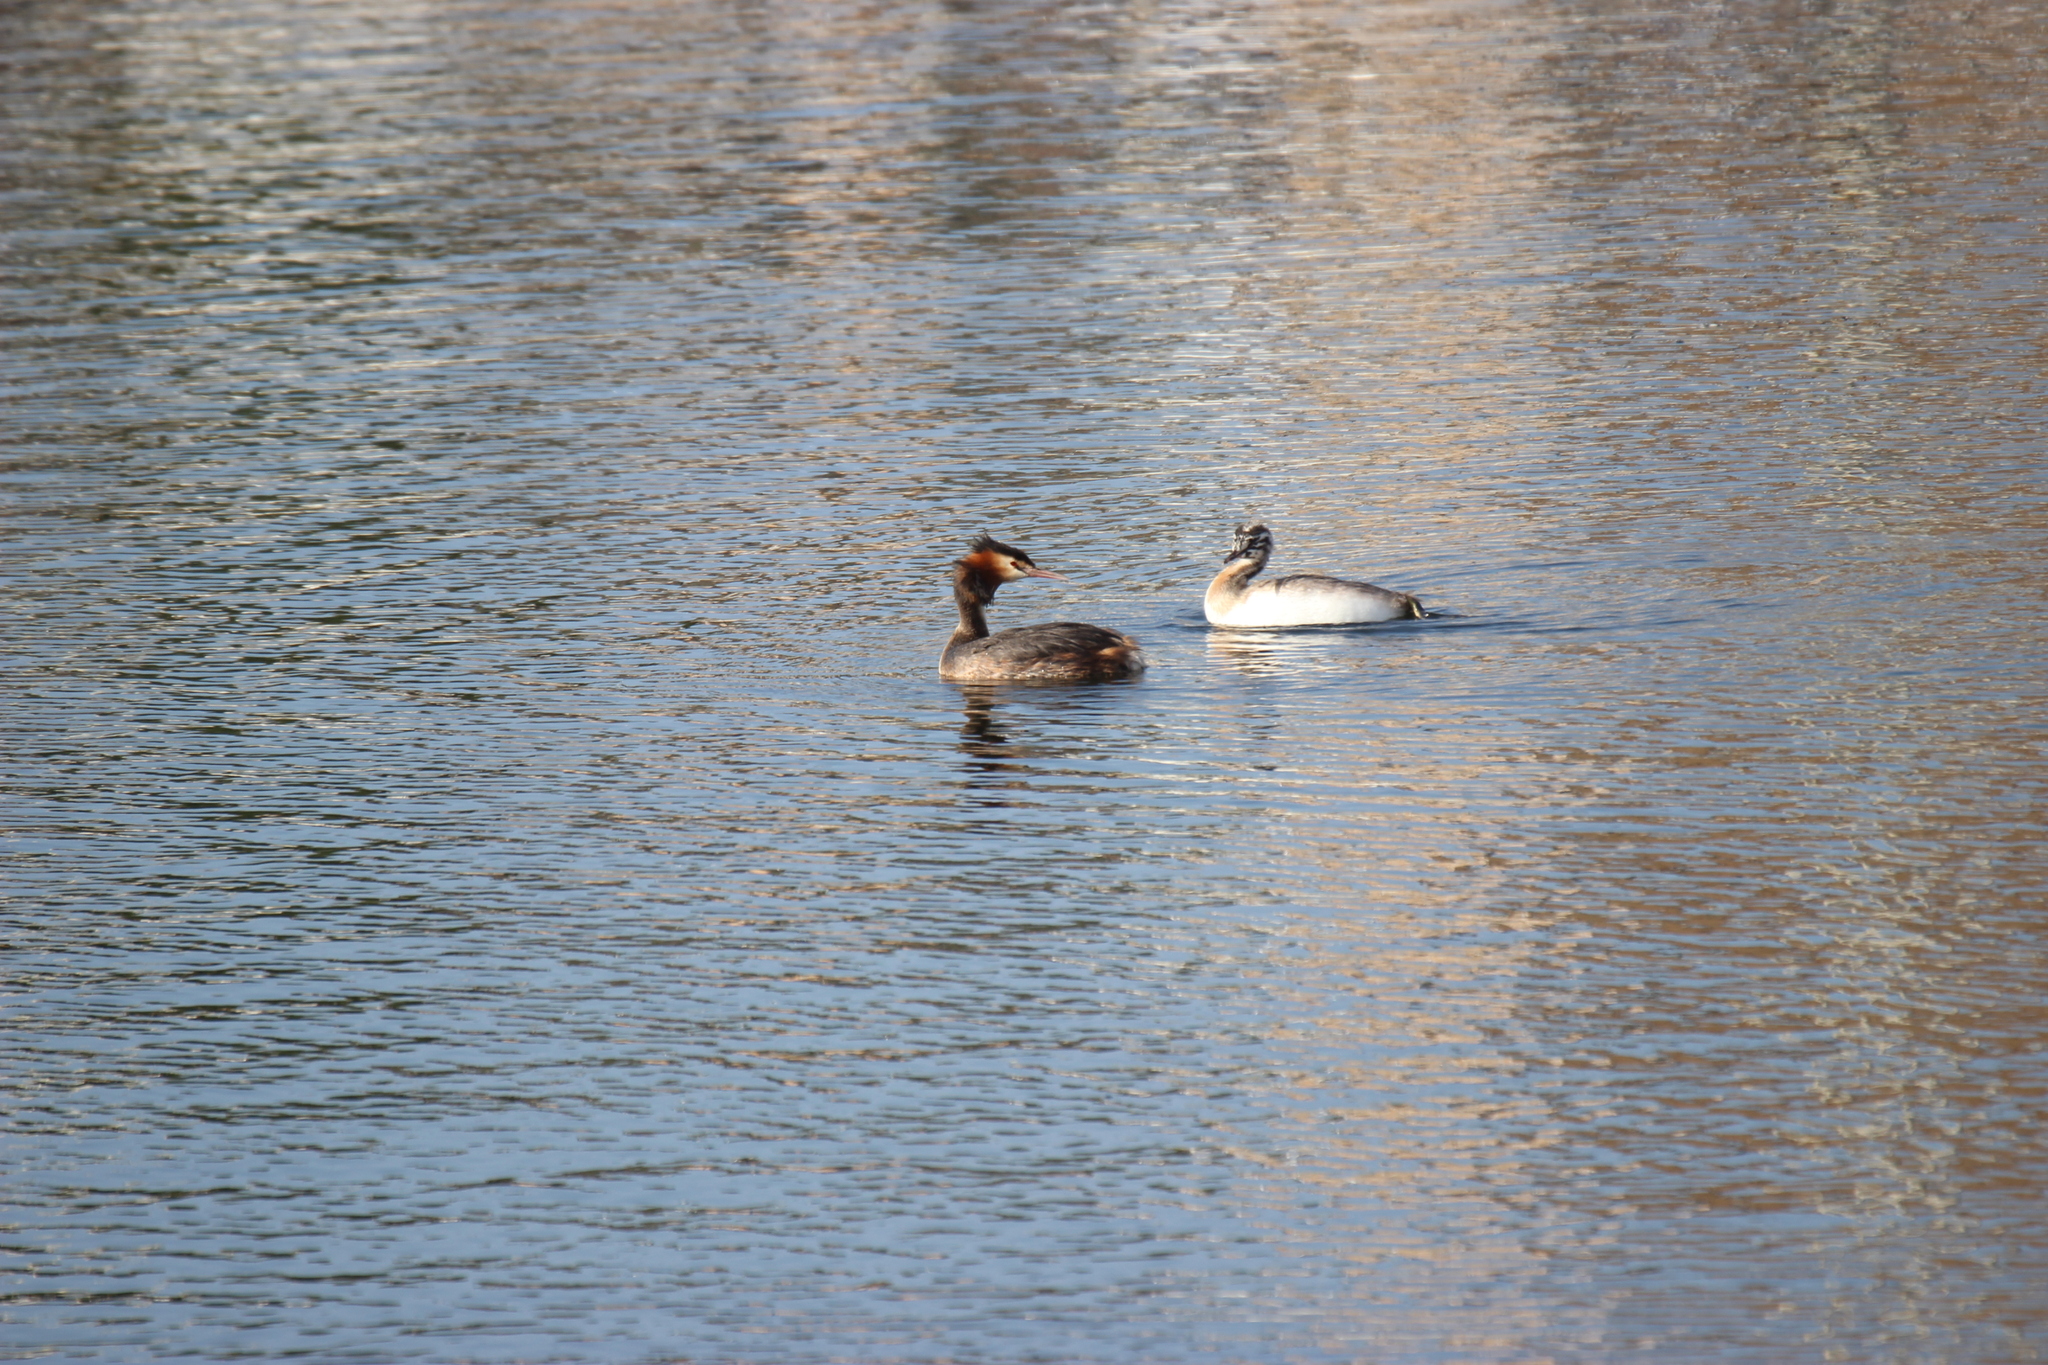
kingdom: Animalia
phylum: Chordata
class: Aves
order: Podicipediformes
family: Podicipedidae
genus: Podiceps
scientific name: Podiceps cristatus
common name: Great crested grebe
